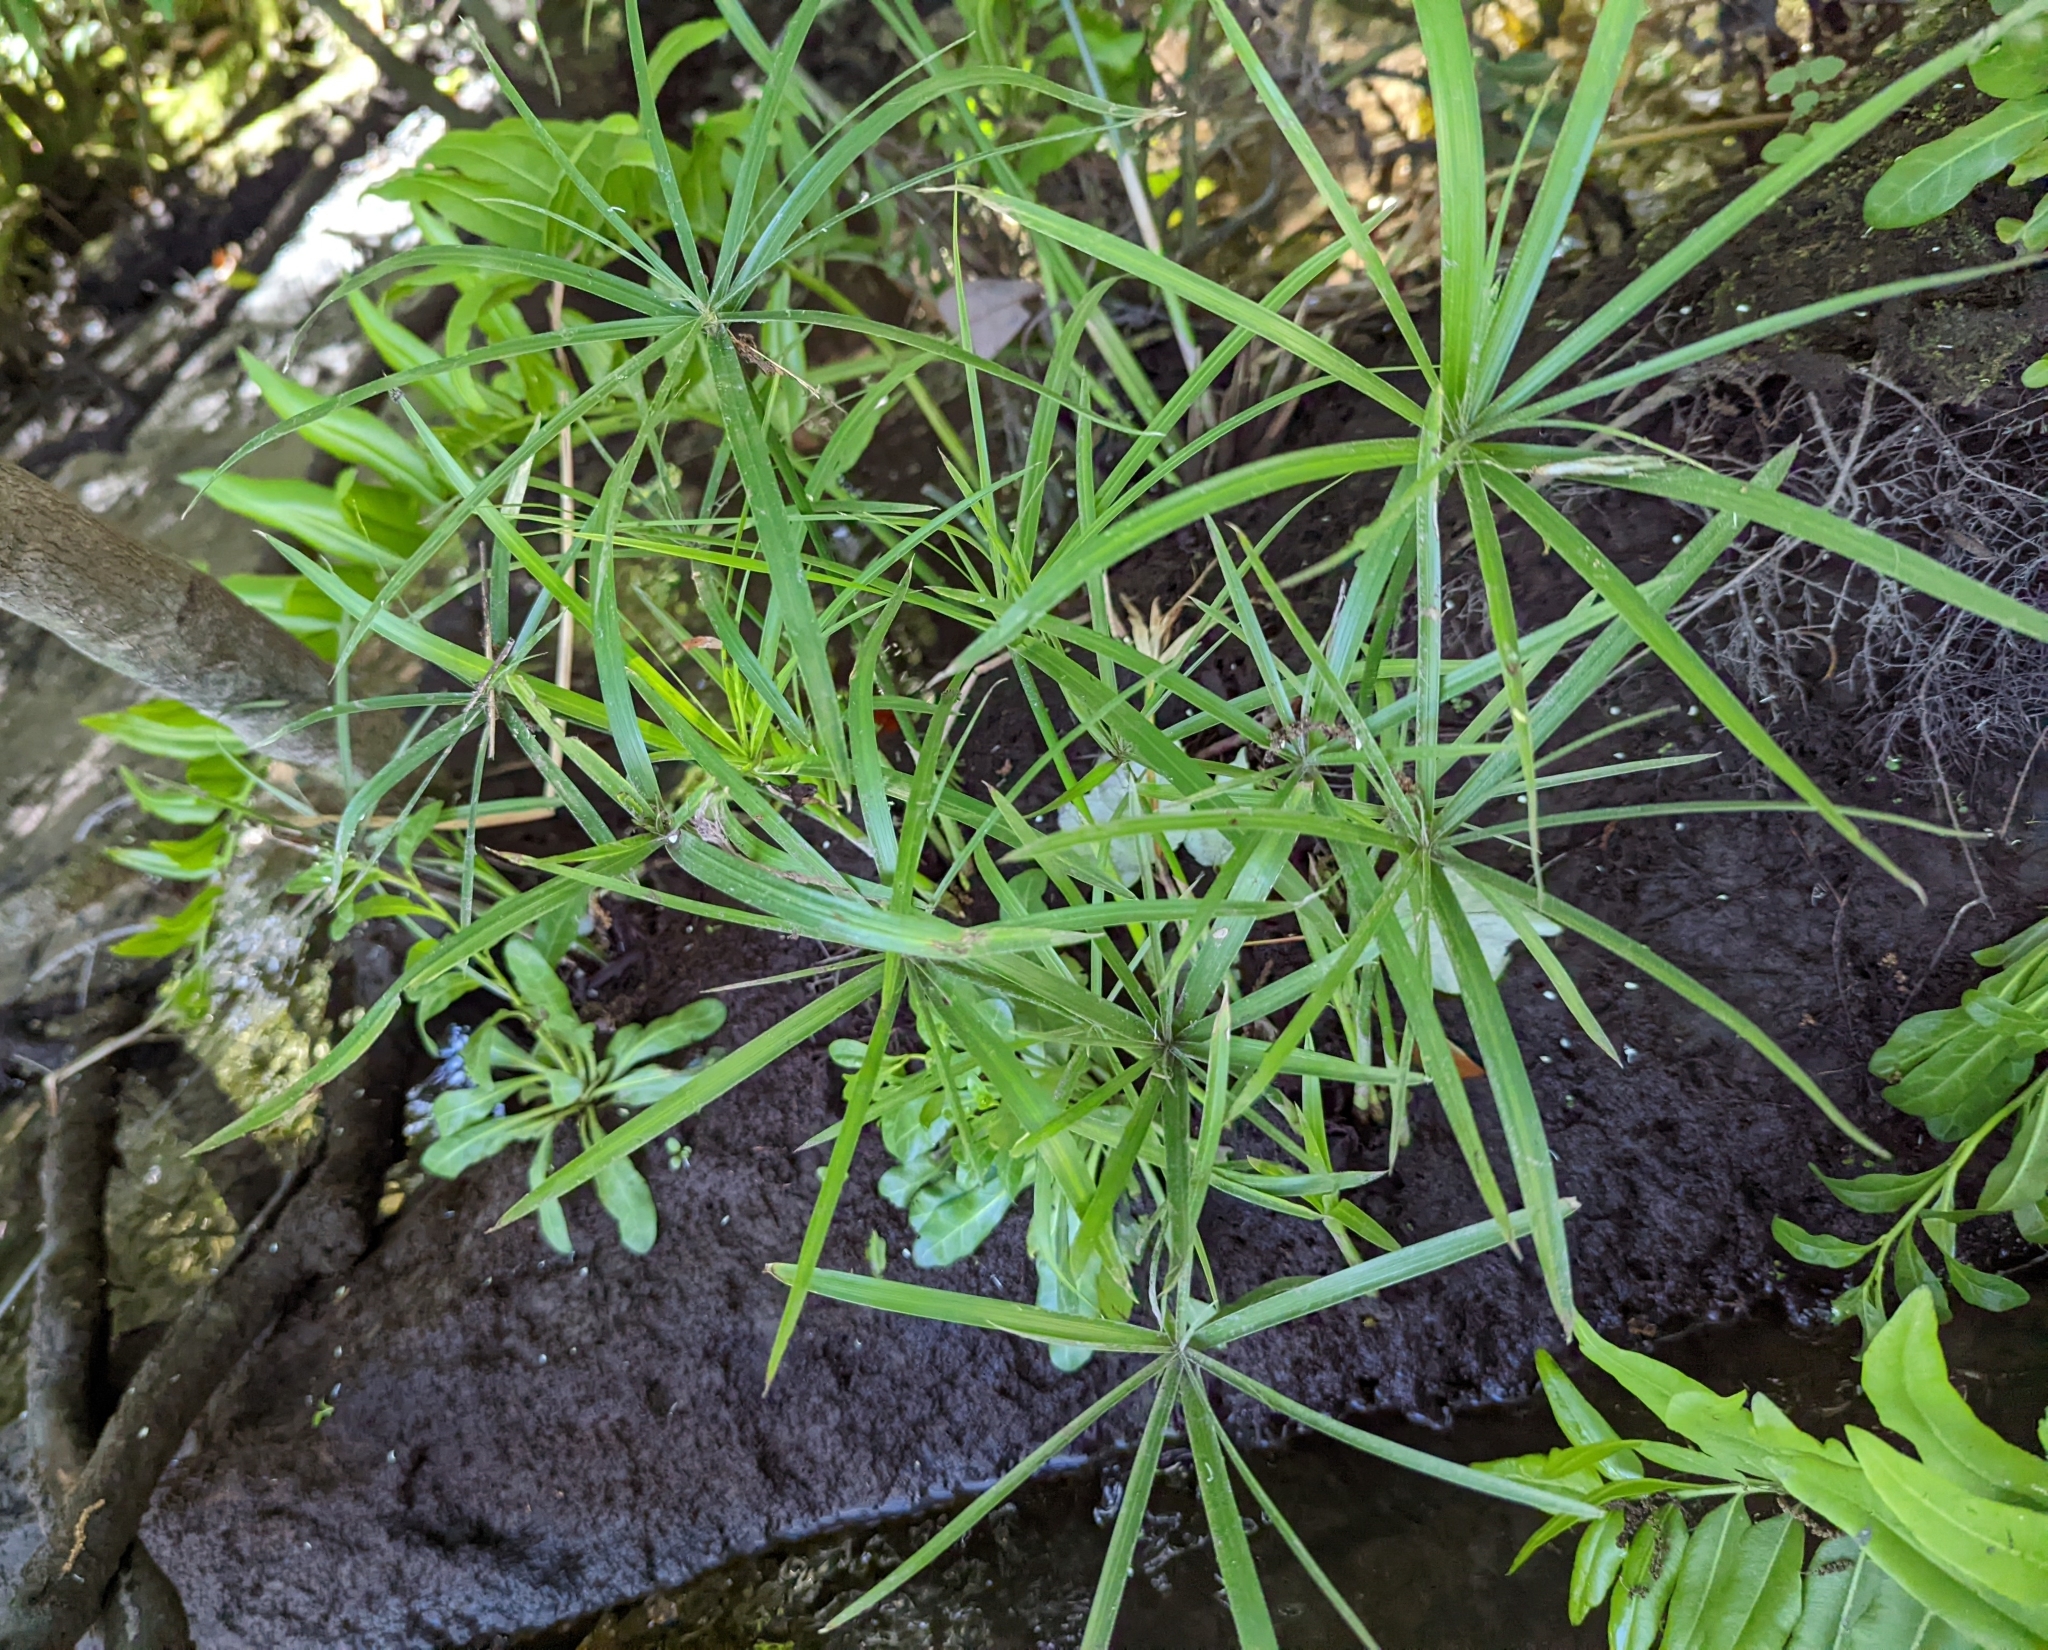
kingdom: Plantae
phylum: Tracheophyta
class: Liliopsida
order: Poales
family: Cyperaceae
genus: Cyperus
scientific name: Cyperus alternifolius
